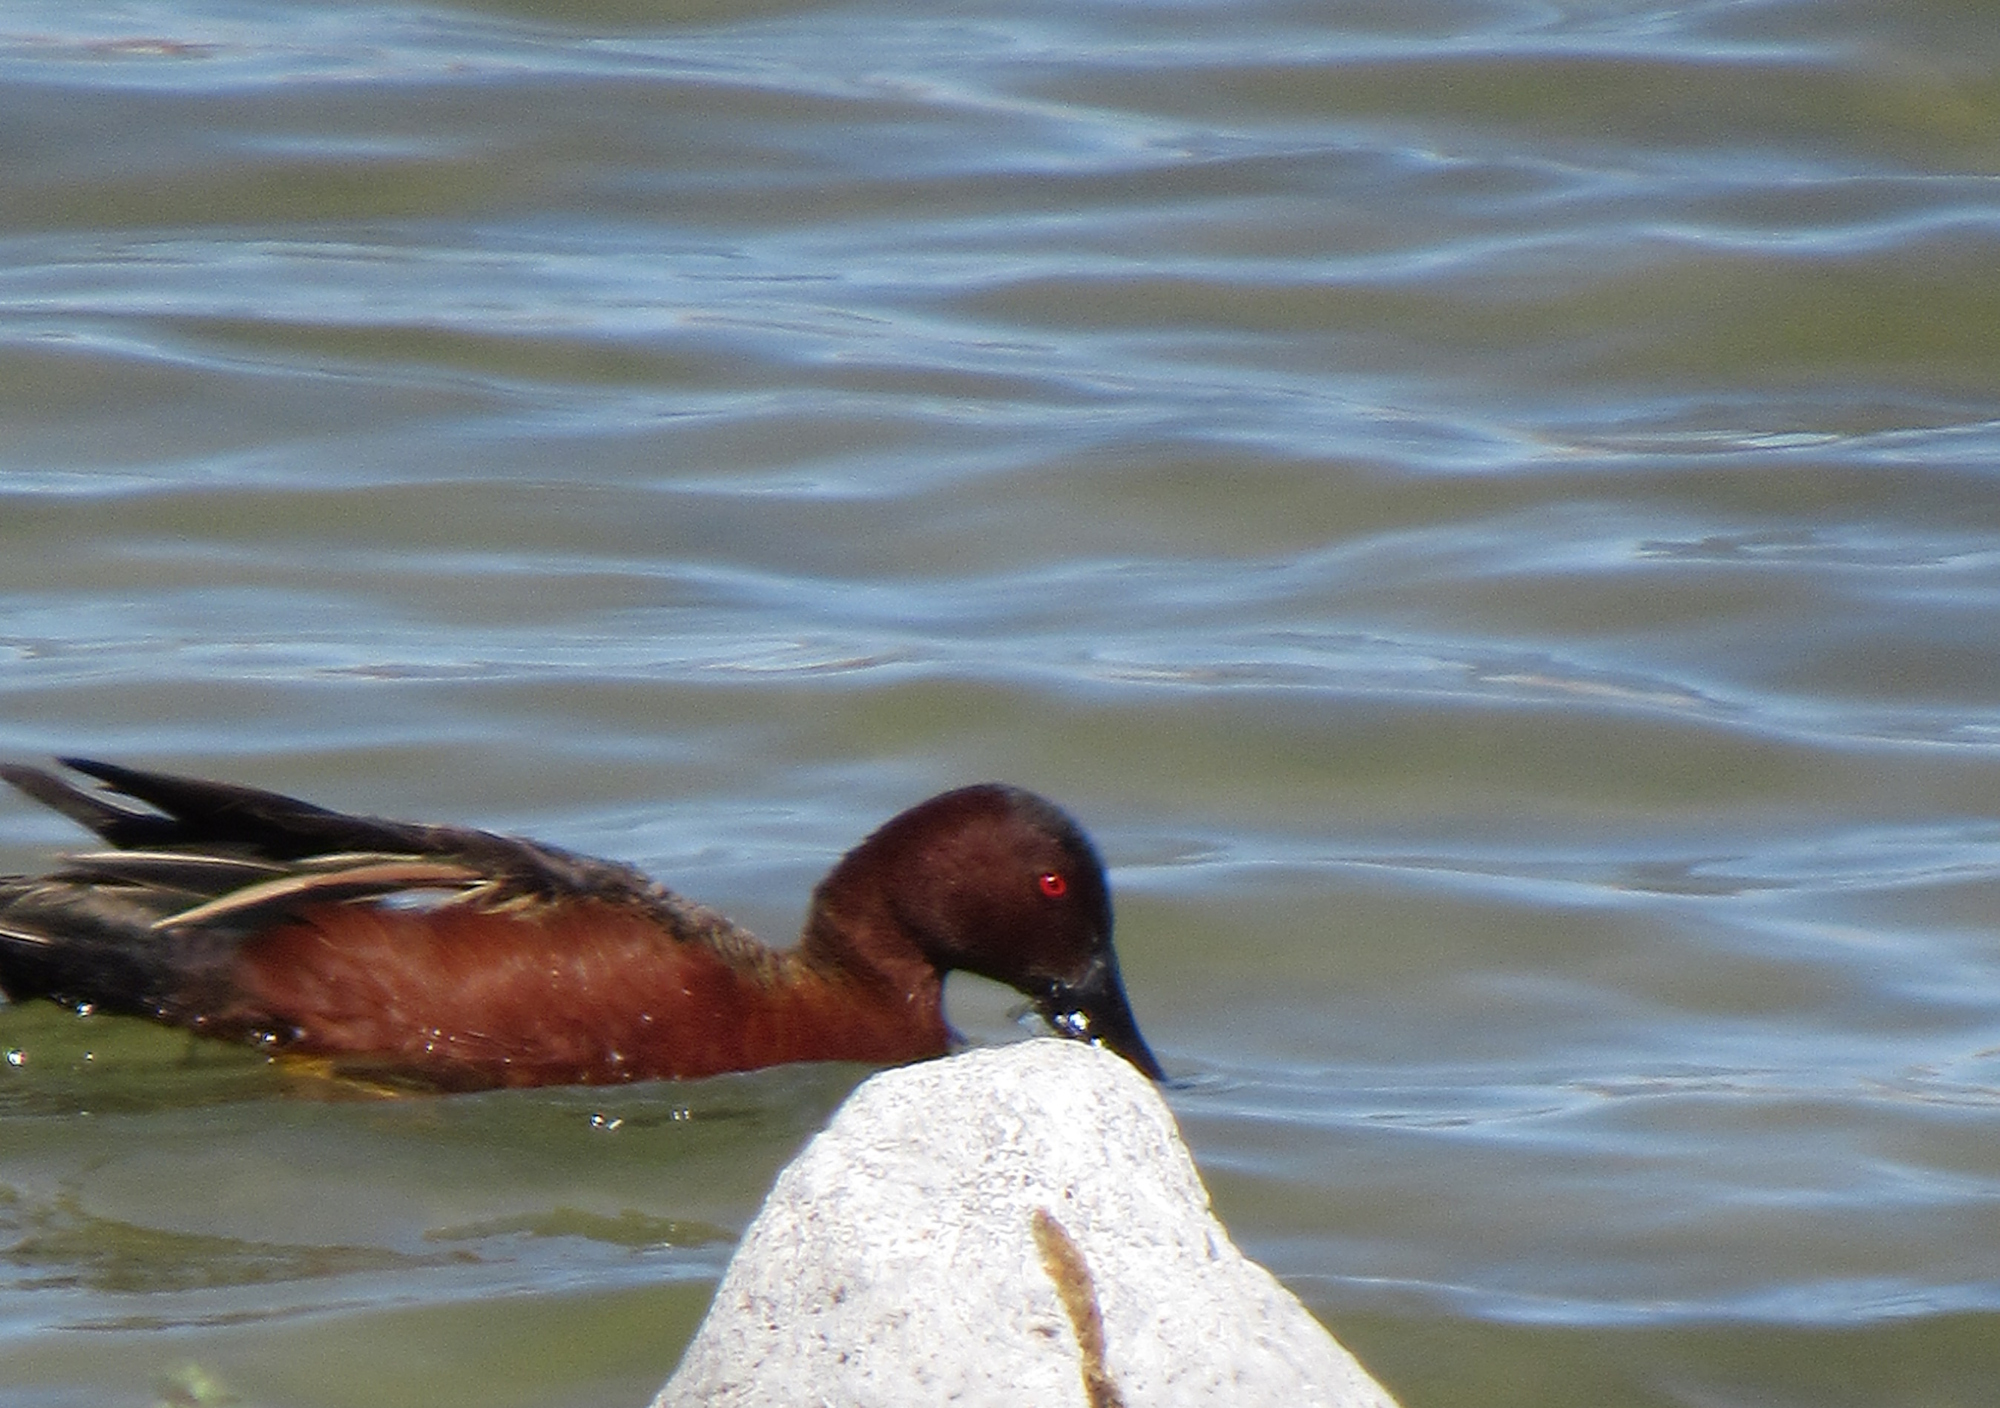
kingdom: Animalia
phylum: Chordata
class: Aves
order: Anseriformes
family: Anatidae
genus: Spatula
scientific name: Spatula cyanoptera
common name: Cinnamon teal
